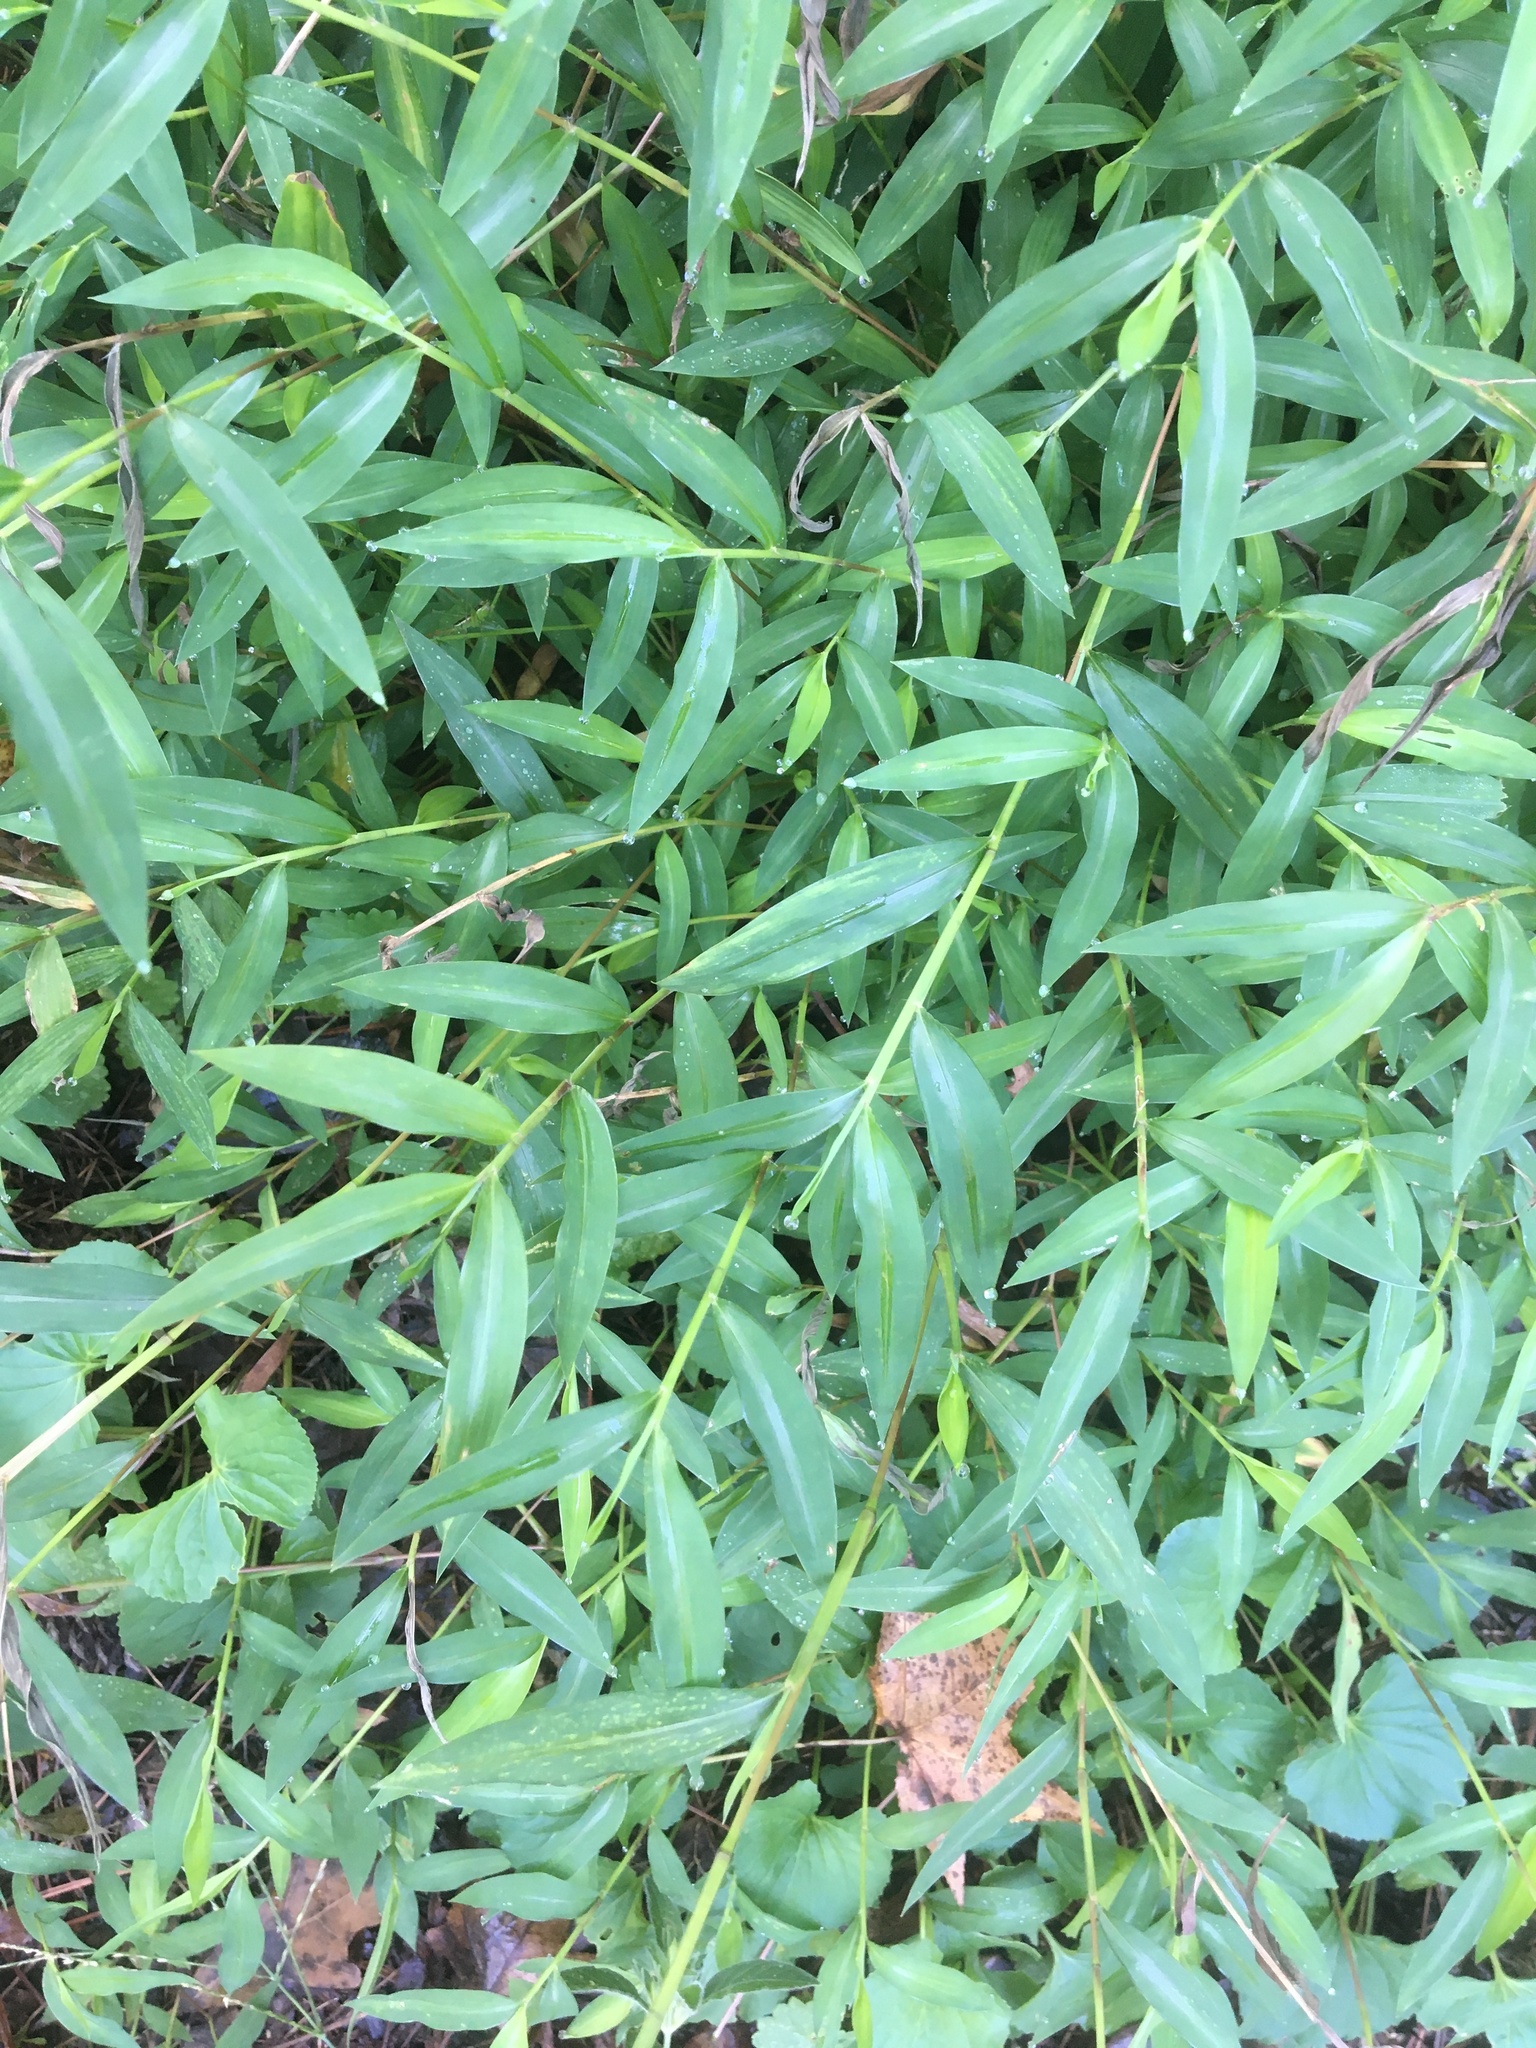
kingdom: Plantae
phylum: Tracheophyta
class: Liliopsida
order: Poales
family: Poaceae
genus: Microstegium
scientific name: Microstegium vimineum
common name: Japanese stiltgrass
